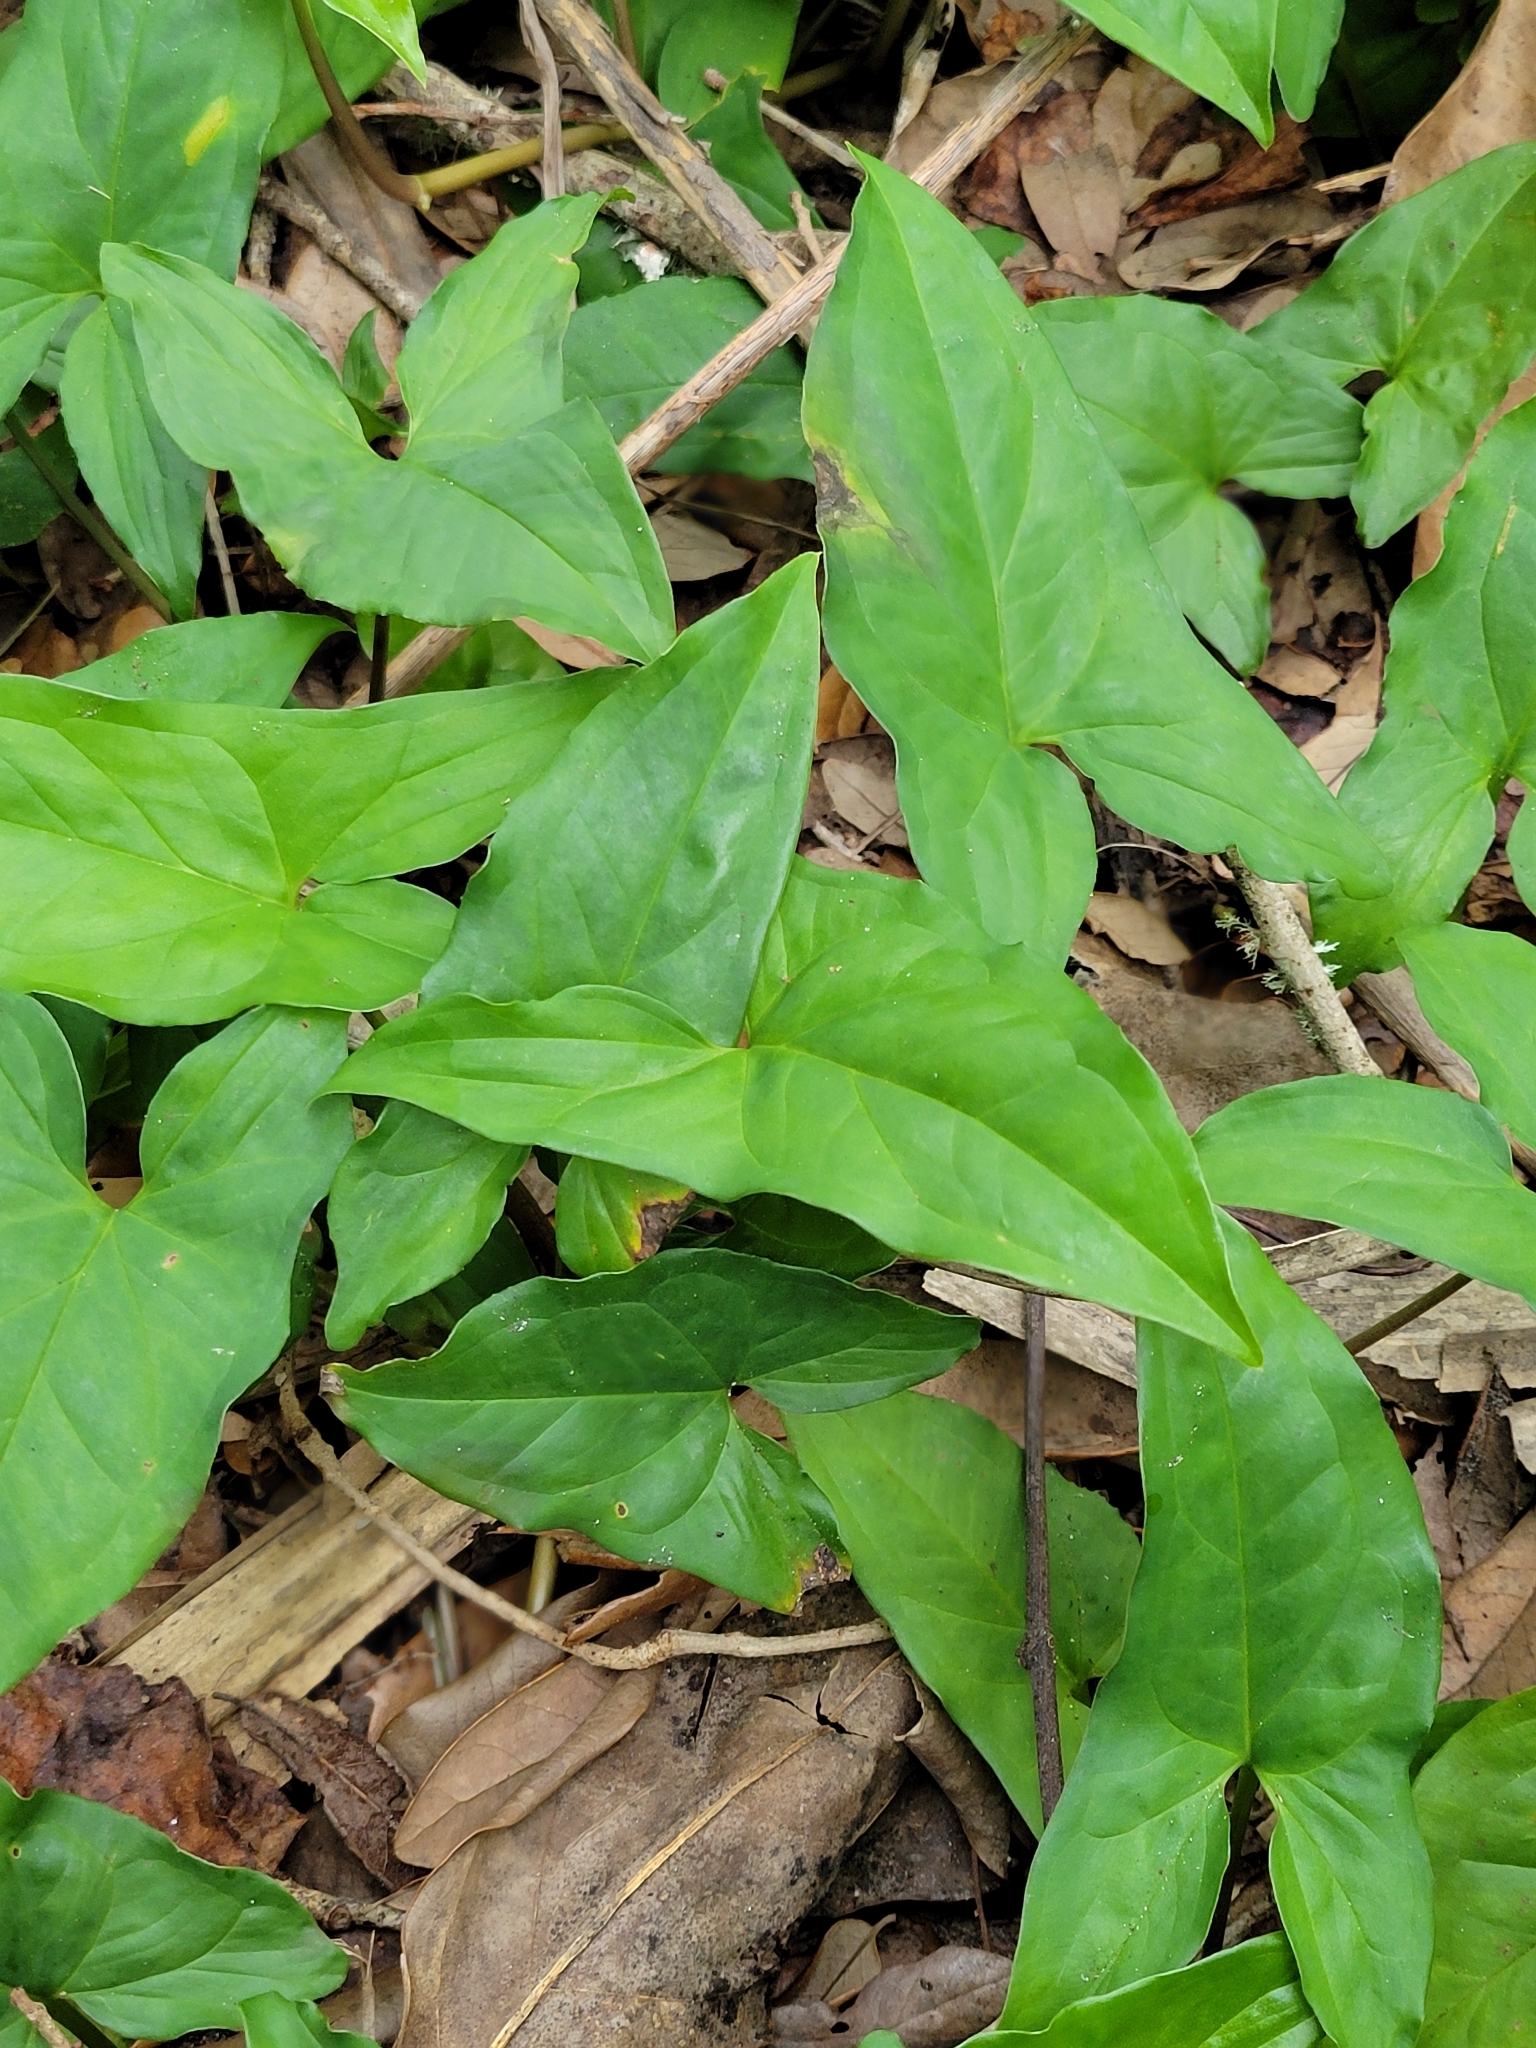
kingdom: Plantae
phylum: Tracheophyta
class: Liliopsida
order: Alismatales
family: Araceae
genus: Syngonium
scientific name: Syngonium podophyllum
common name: American evergreen
